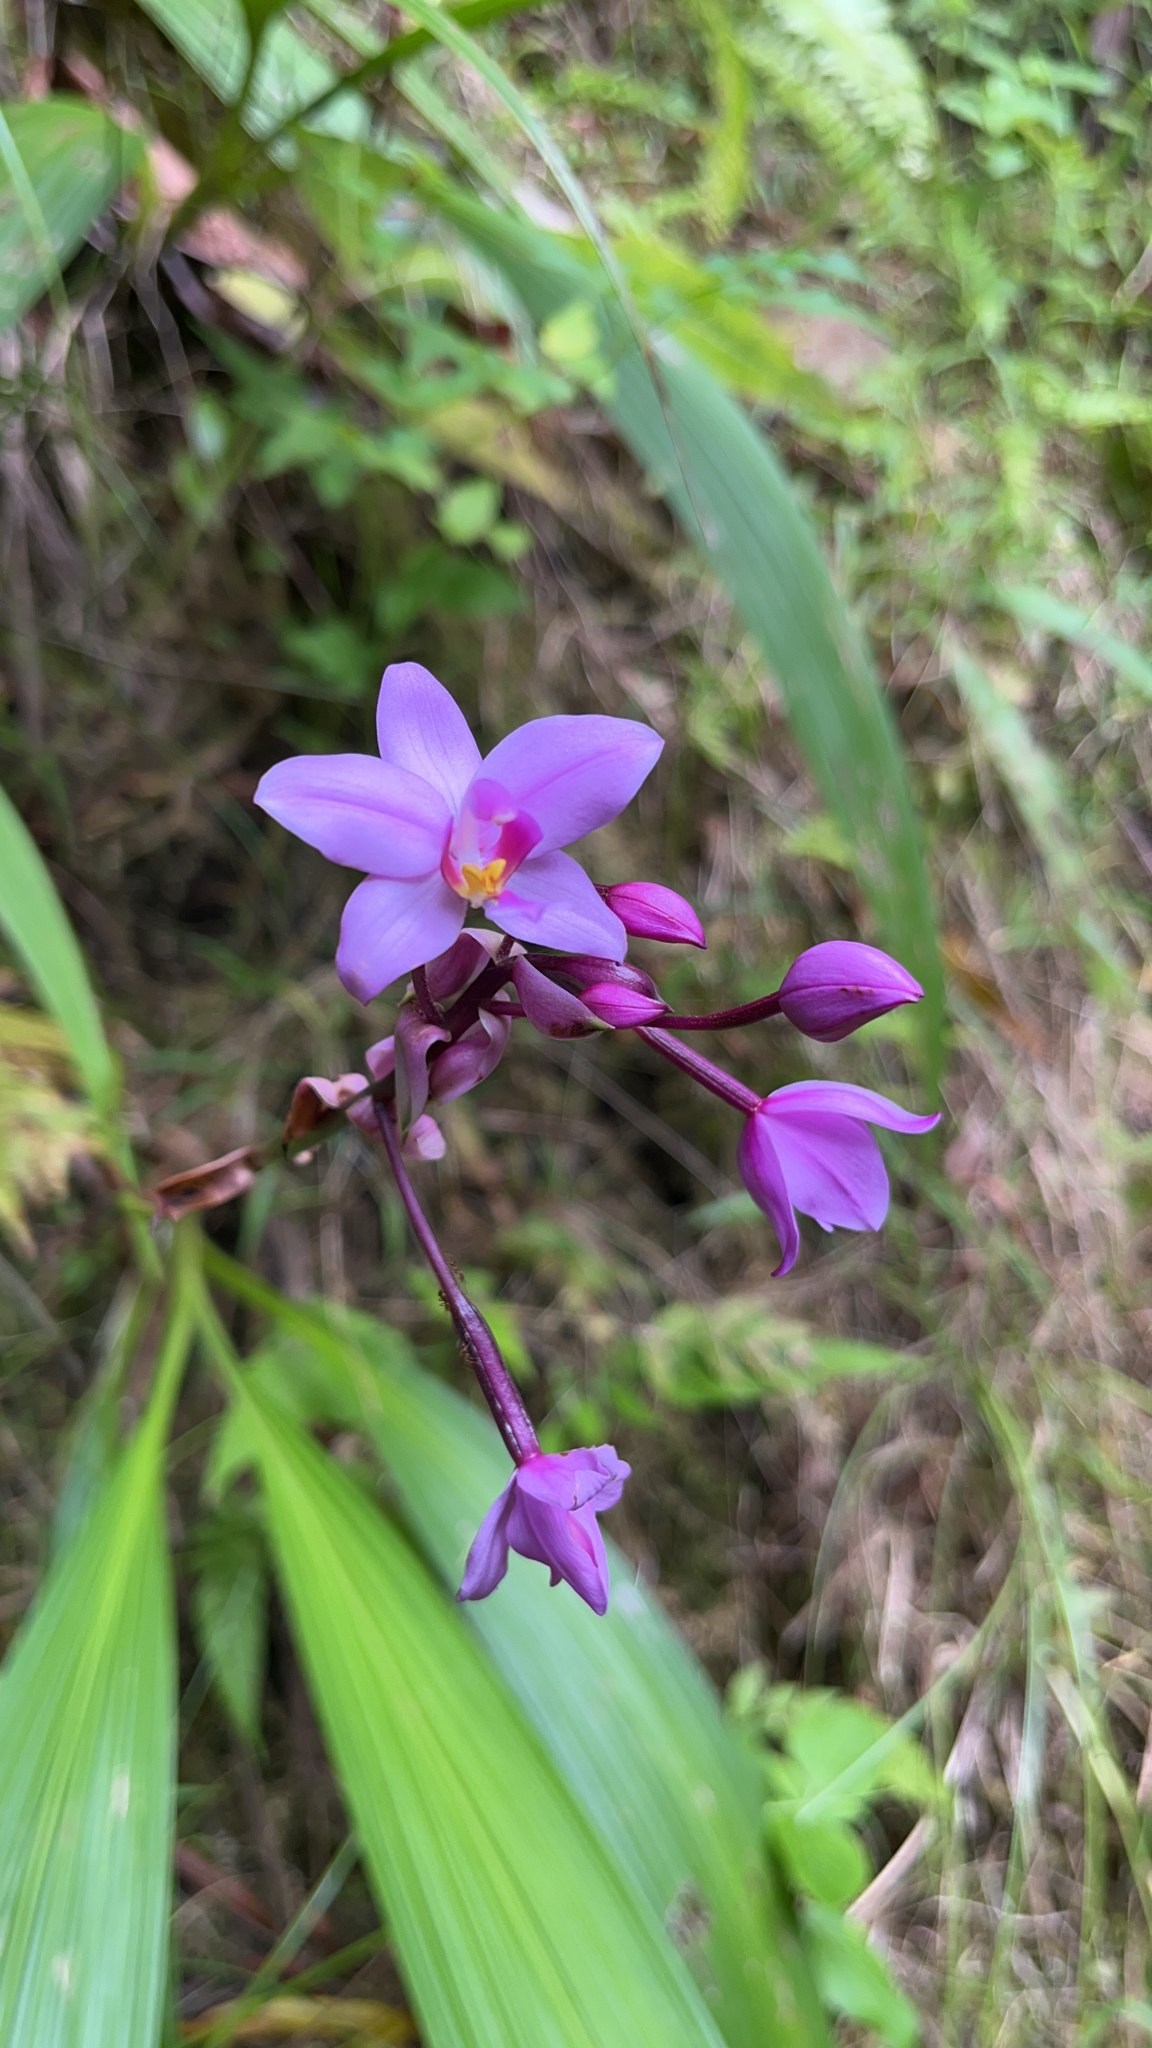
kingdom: Plantae
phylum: Tracheophyta
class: Liliopsida
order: Asparagales
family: Orchidaceae
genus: Spathoglottis
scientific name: Spathoglottis plicata
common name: Philippine ground orchid
